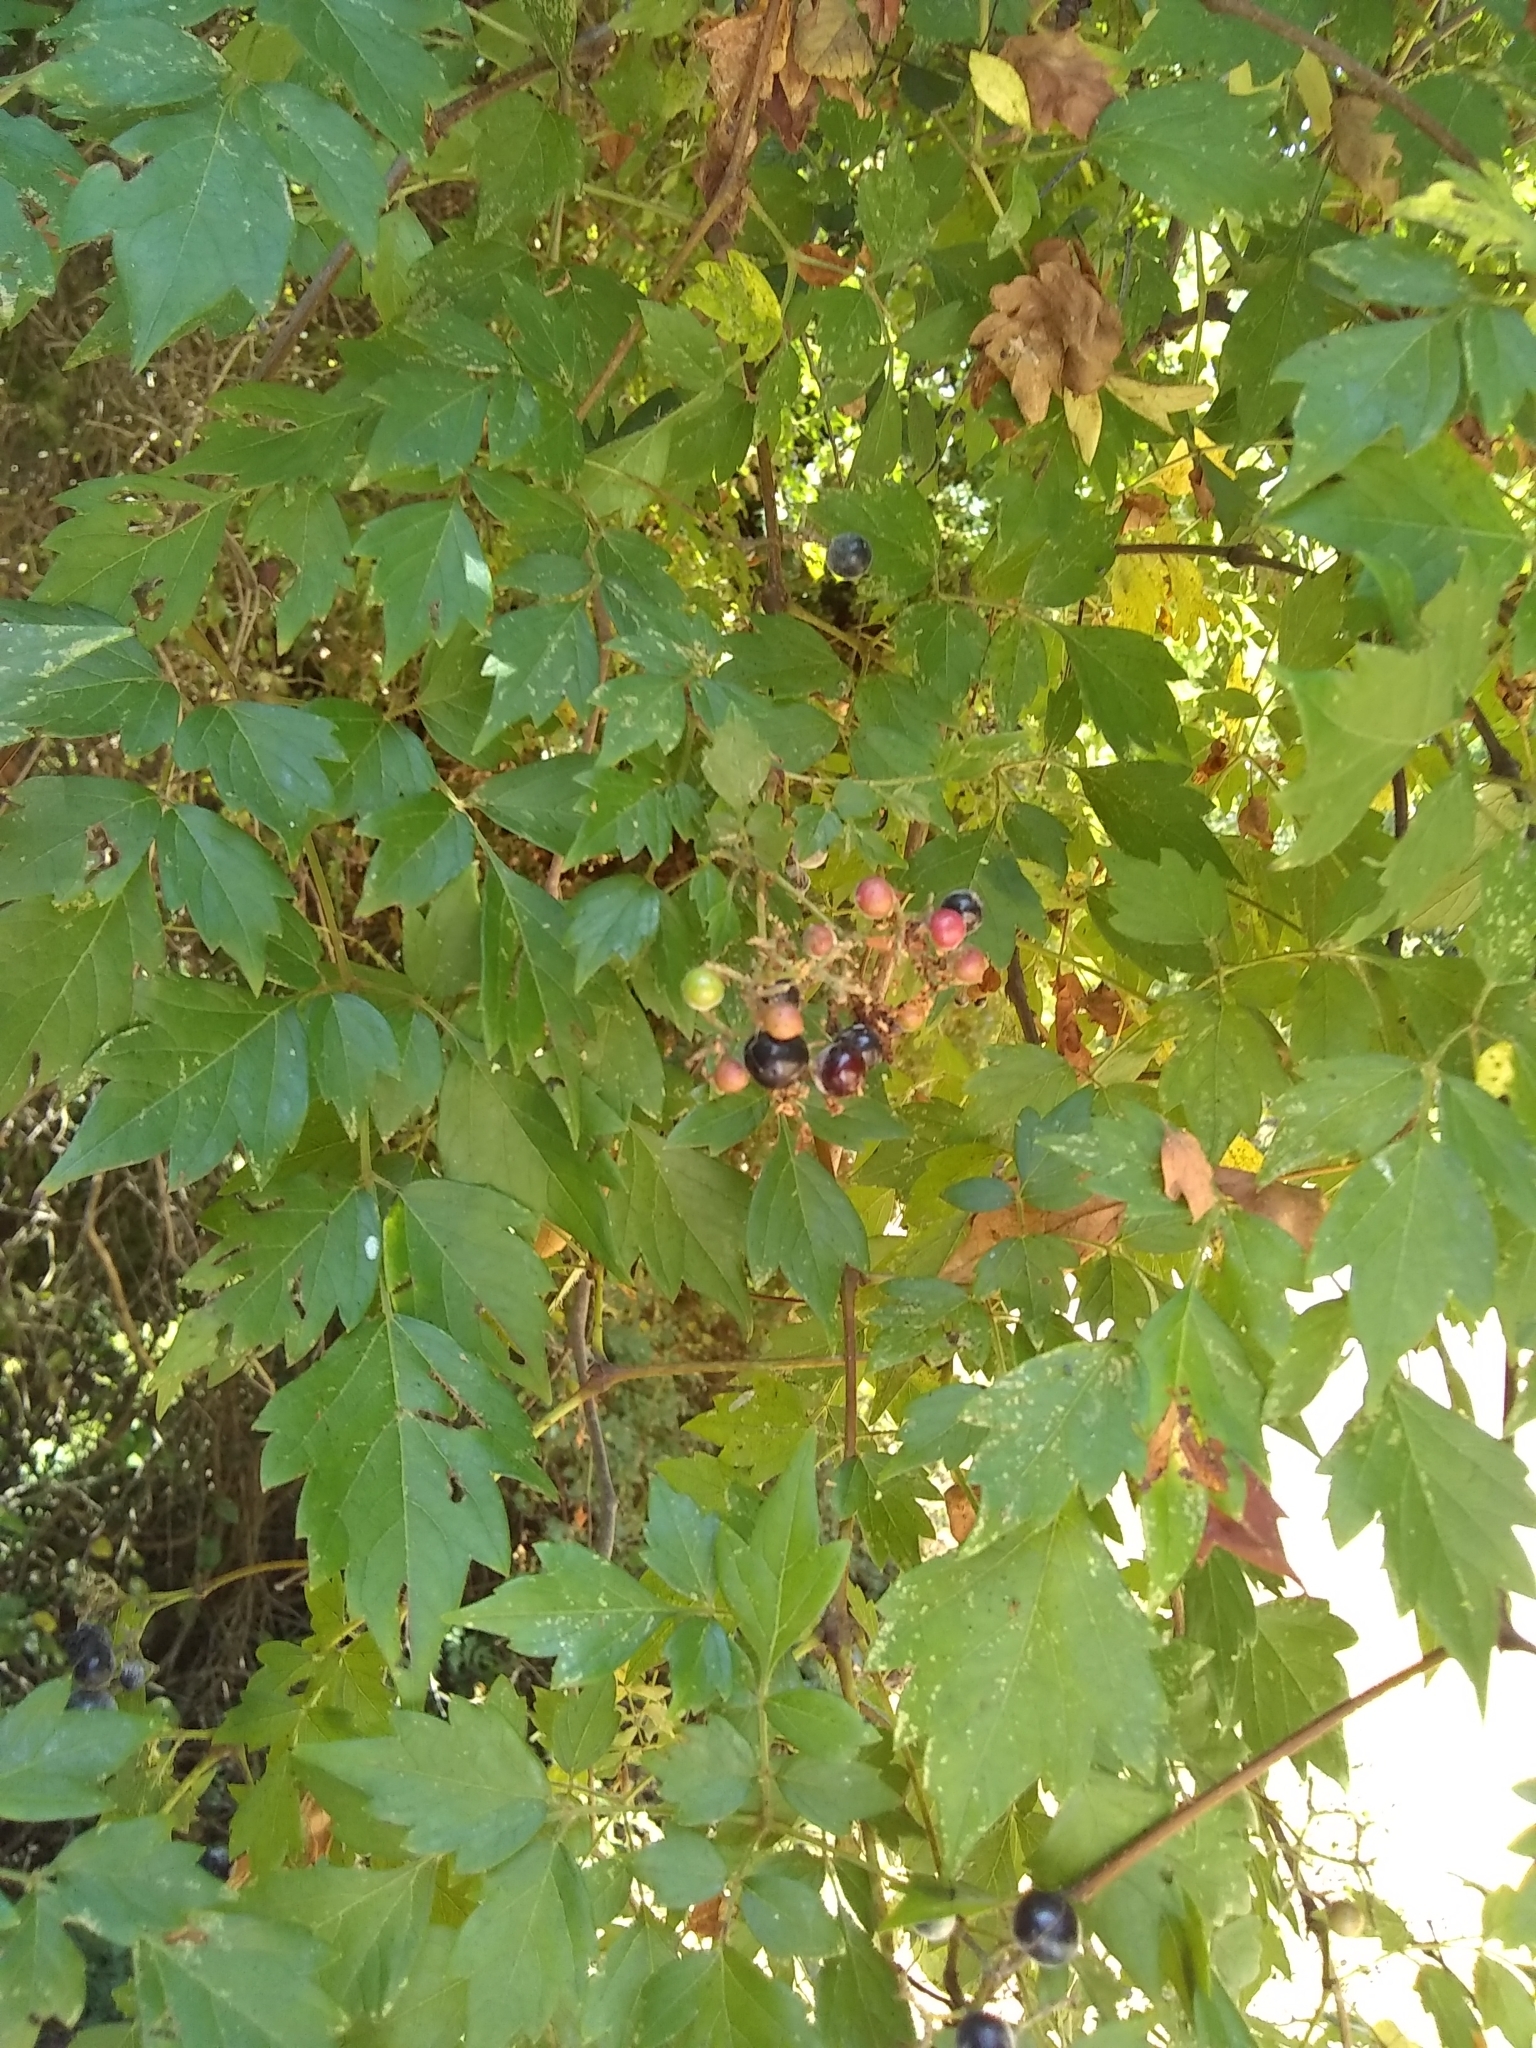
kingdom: Plantae
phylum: Tracheophyta
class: Magnoliopsida
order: Vitales
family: Vitaceae
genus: Nekemias
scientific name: Nekemias arborea
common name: Peppervine
